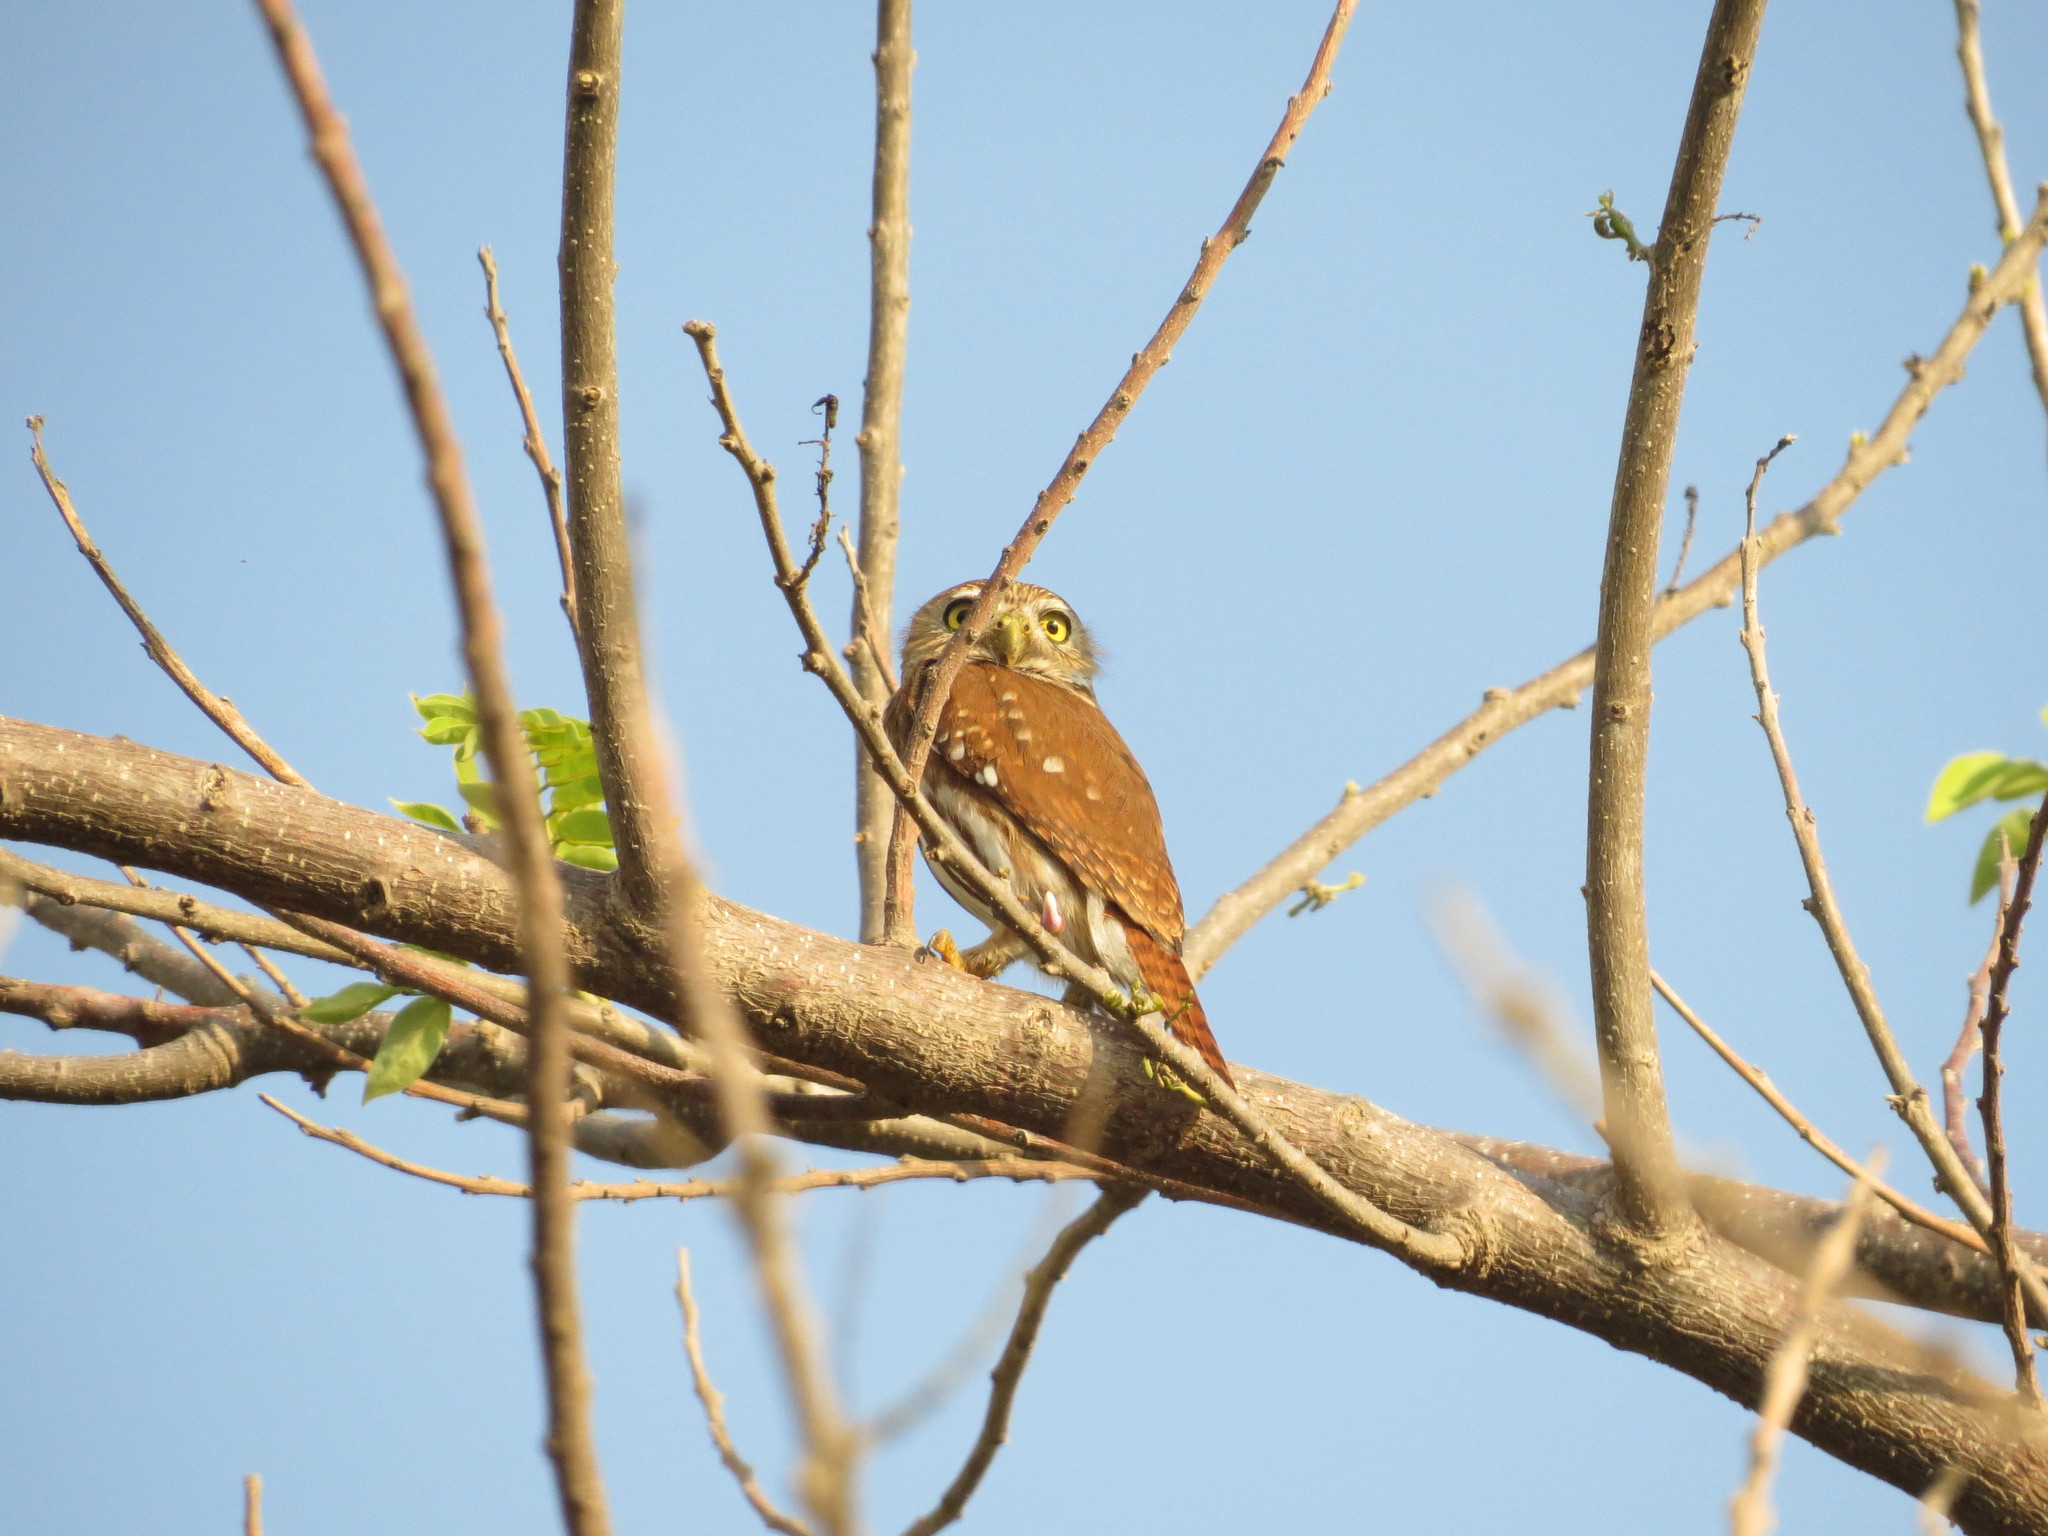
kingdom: Animalia
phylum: Chordata
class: Aves
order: Strigiformes
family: Strigidae
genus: Glaucidium
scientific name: Glaucidium brasilianum
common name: Ferruginous pygmy-owl
